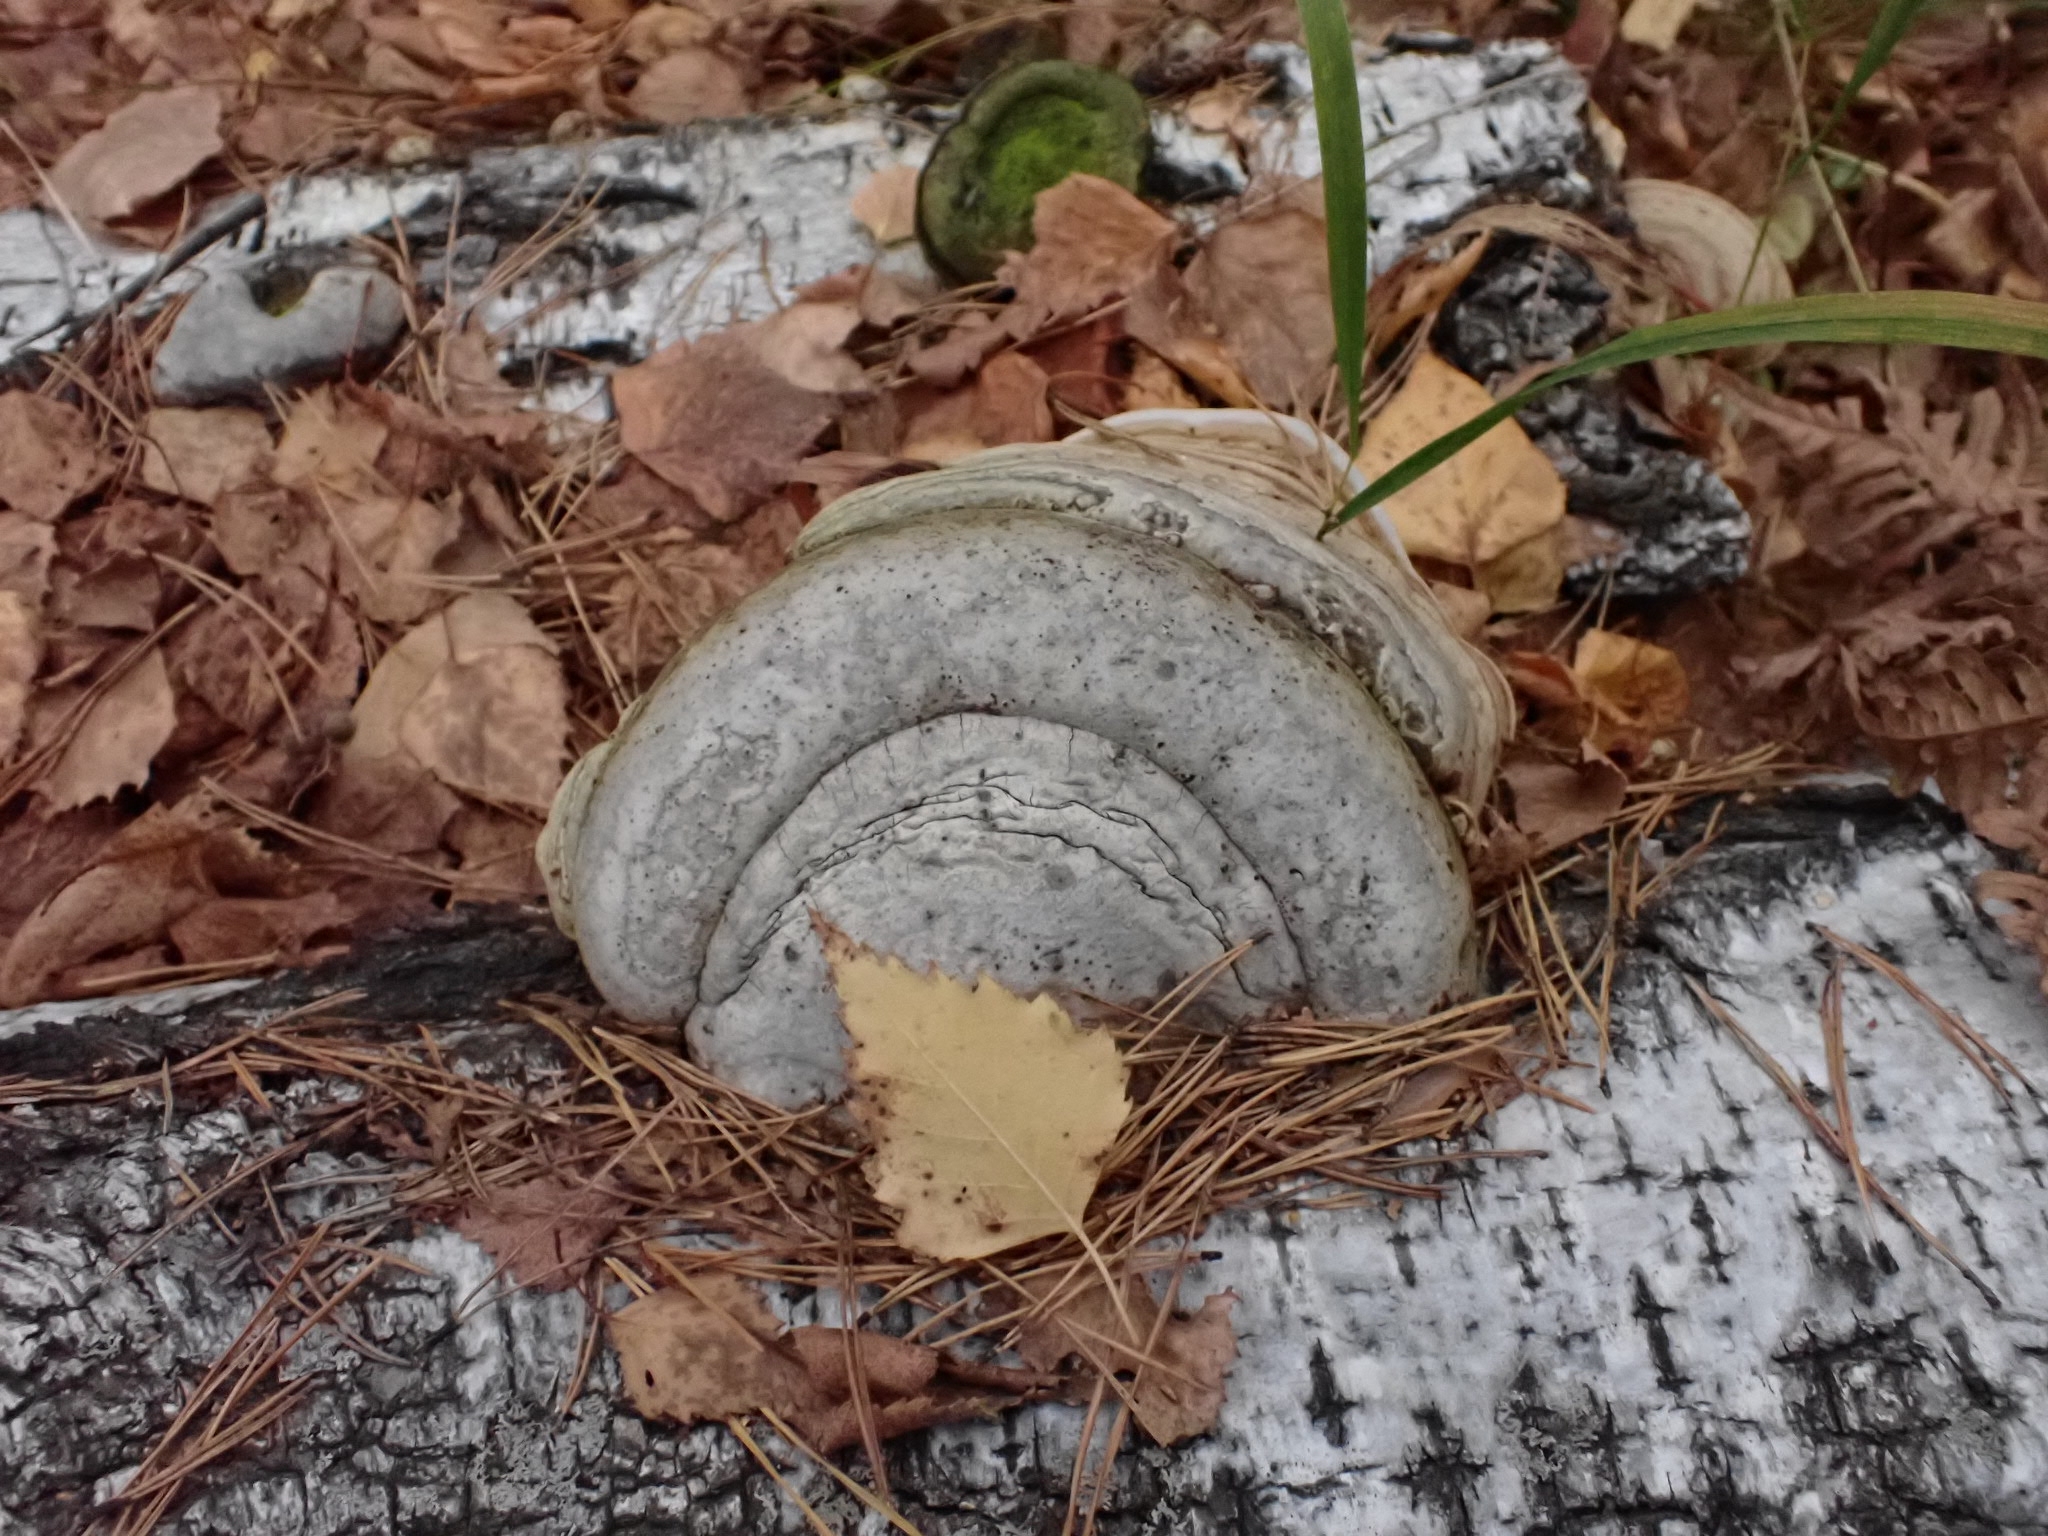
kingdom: Fungi
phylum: Basidiomycota
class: Agaricomycetes
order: Polyporales
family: Polyporaceae
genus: Fomes
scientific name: Fomes fomentarius
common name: Hoof fungus
